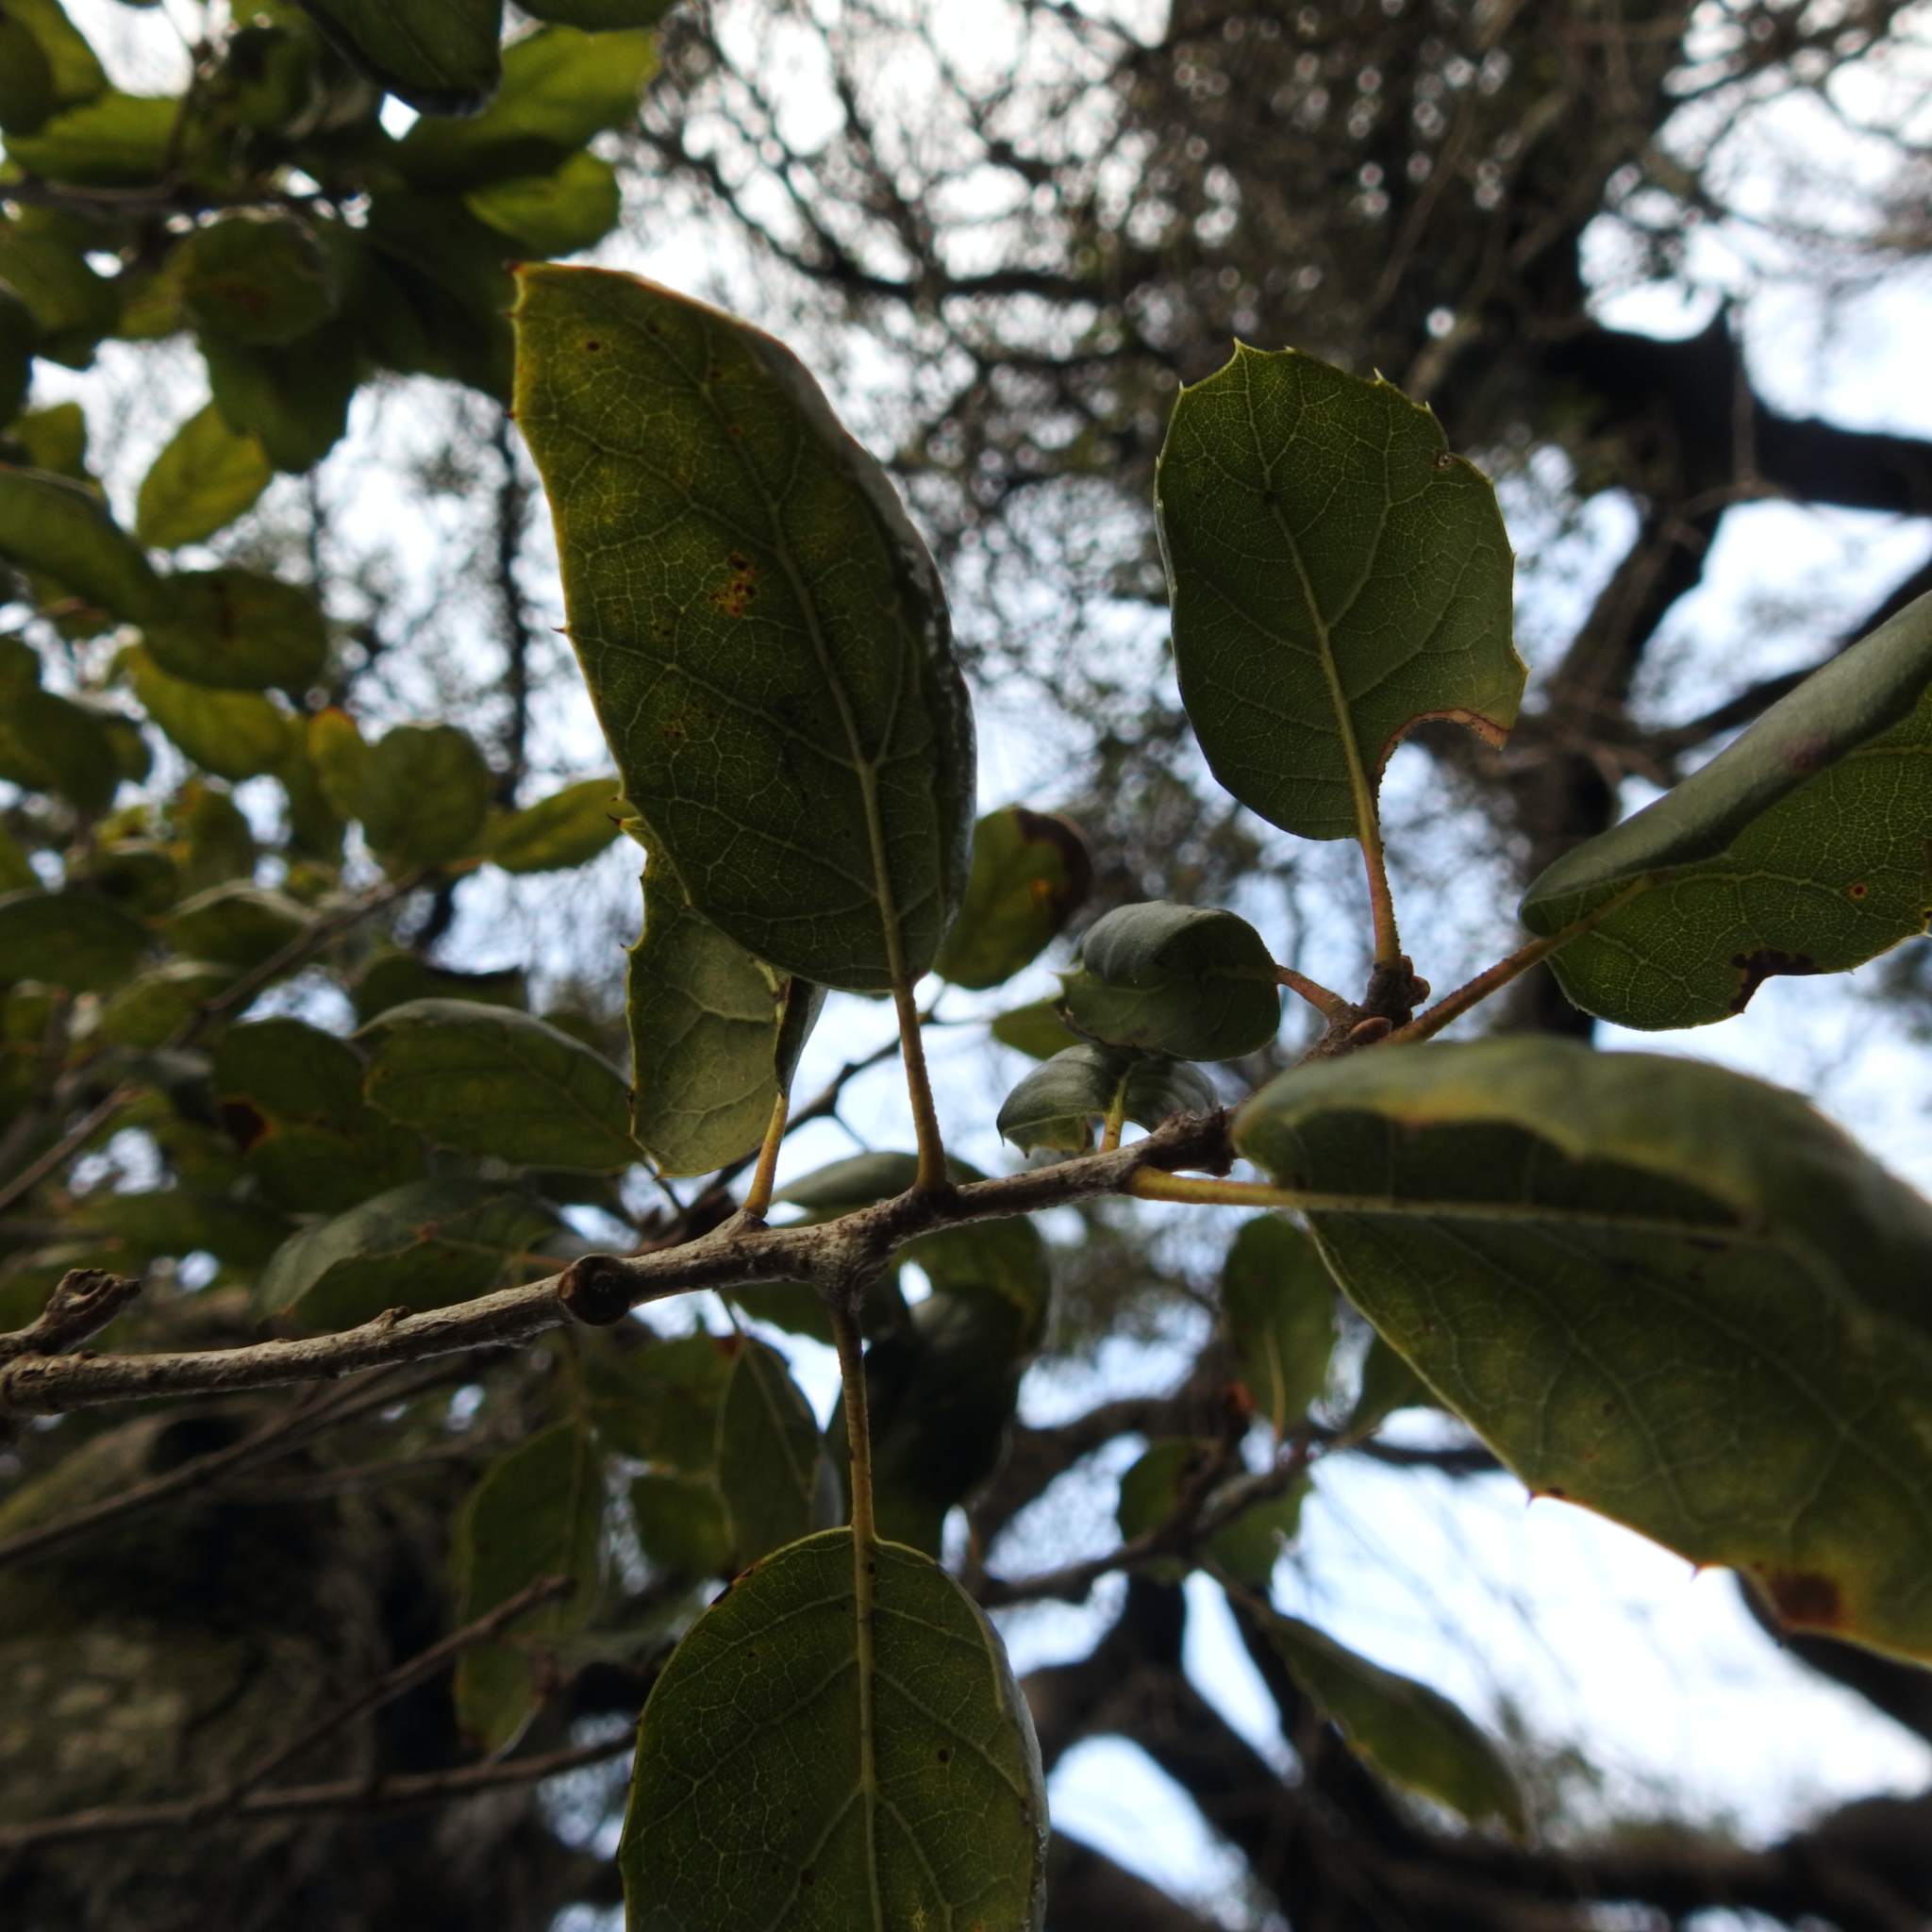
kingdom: Plantae
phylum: Tracheophyta
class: Magnoliopsida
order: Fagales
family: Fagaceae
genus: Quercus
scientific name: Quercus agrifolia
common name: California live oak
